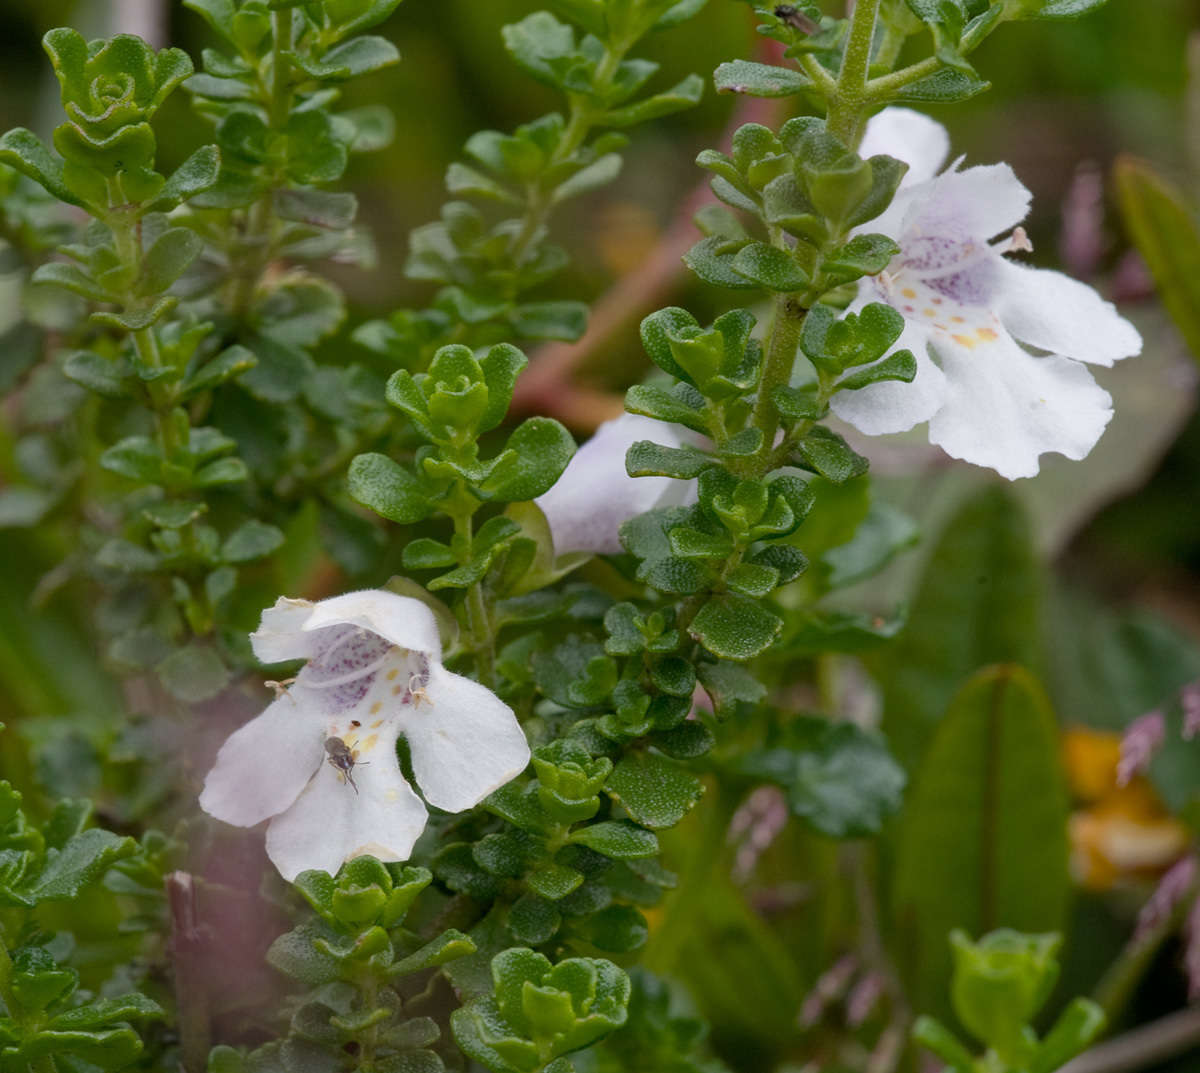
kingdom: Plantae
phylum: Tracheophyta
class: Magnoliopsida
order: Lamiales
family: Lamiaceae
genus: Prostanthera
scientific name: Prostanthera cuneata
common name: Alpine mintbush
